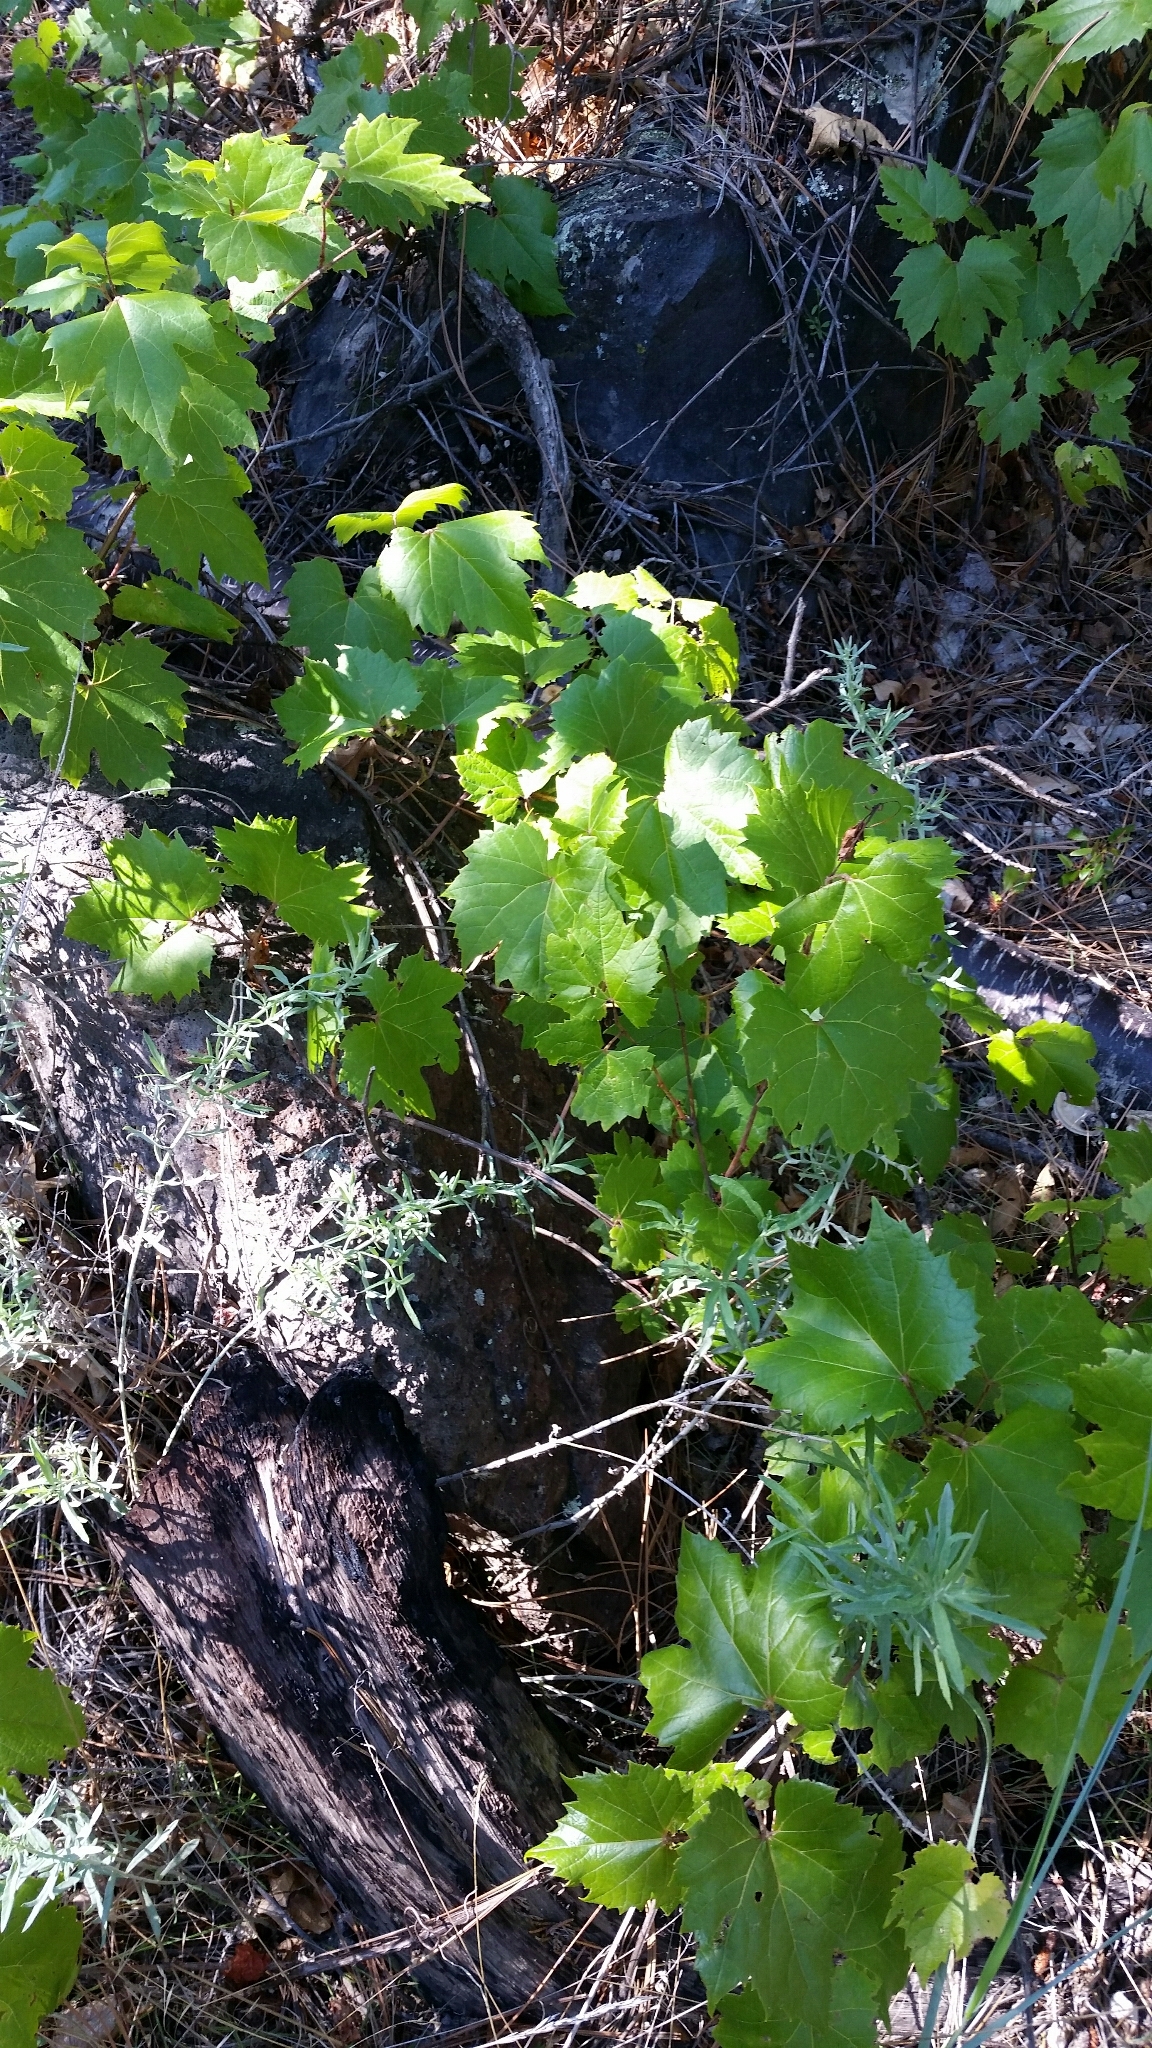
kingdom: Plantae
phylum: Tracheophyta
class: Magnoliopsida
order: Vitales
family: Vitaceae
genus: Vitis
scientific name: Vitis arizonica
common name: Canyon grape
